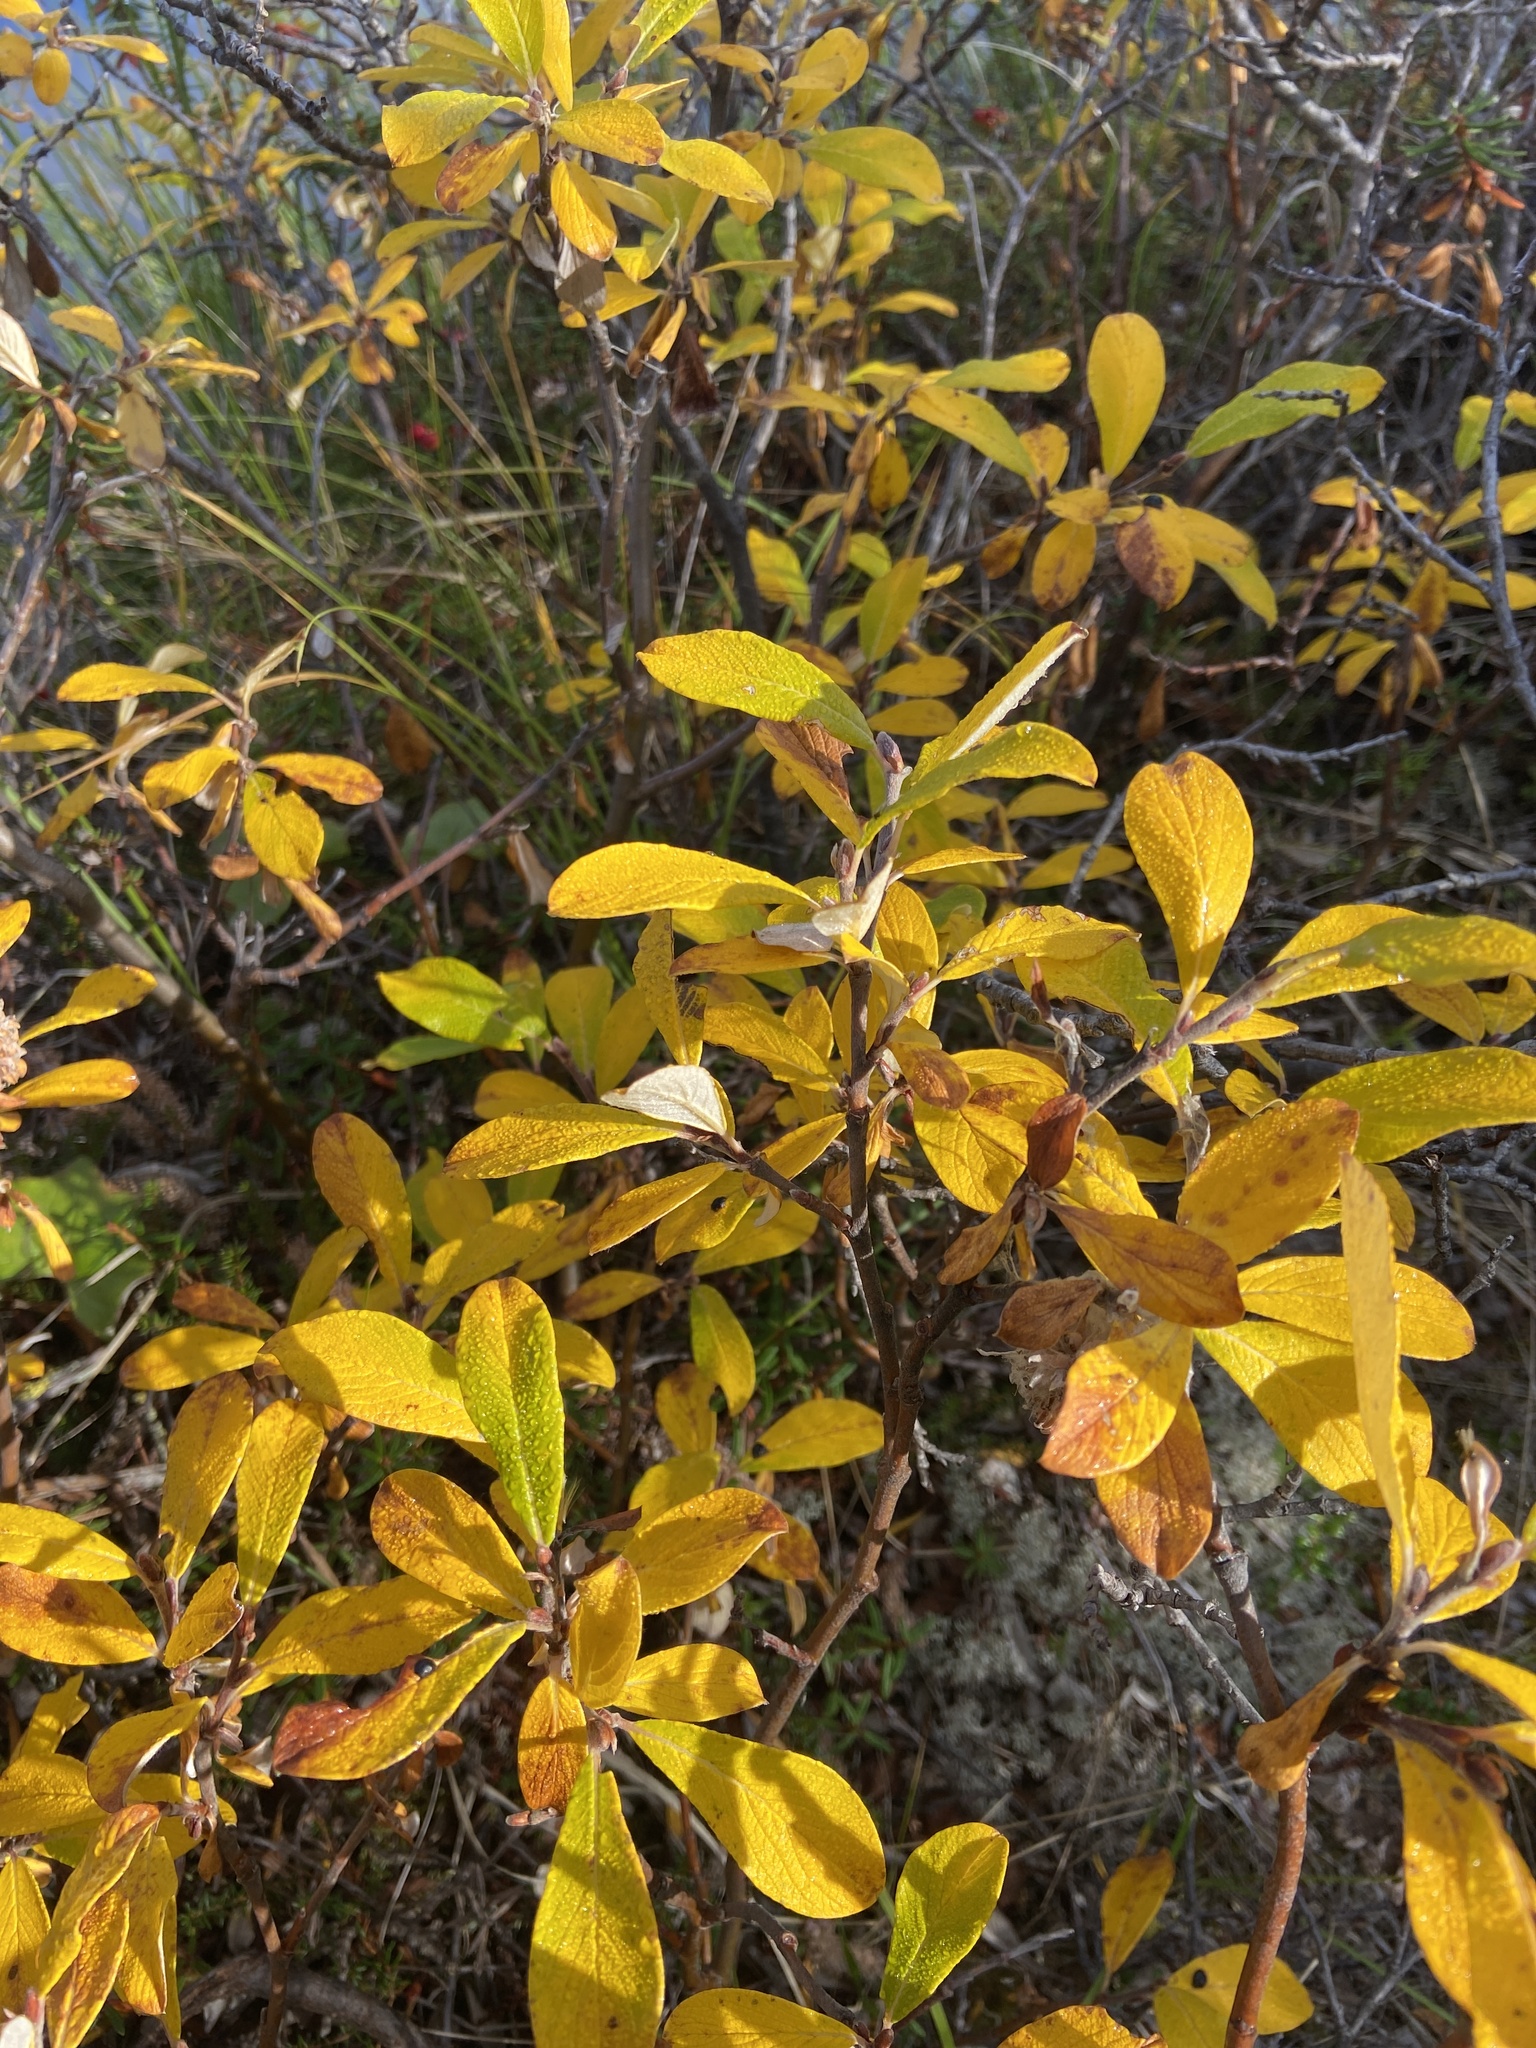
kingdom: Plantae
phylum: Tracheophyta
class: Magnoliopsida
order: Malpighiales
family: Salicaceae
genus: Salix
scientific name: Salix krylovii
